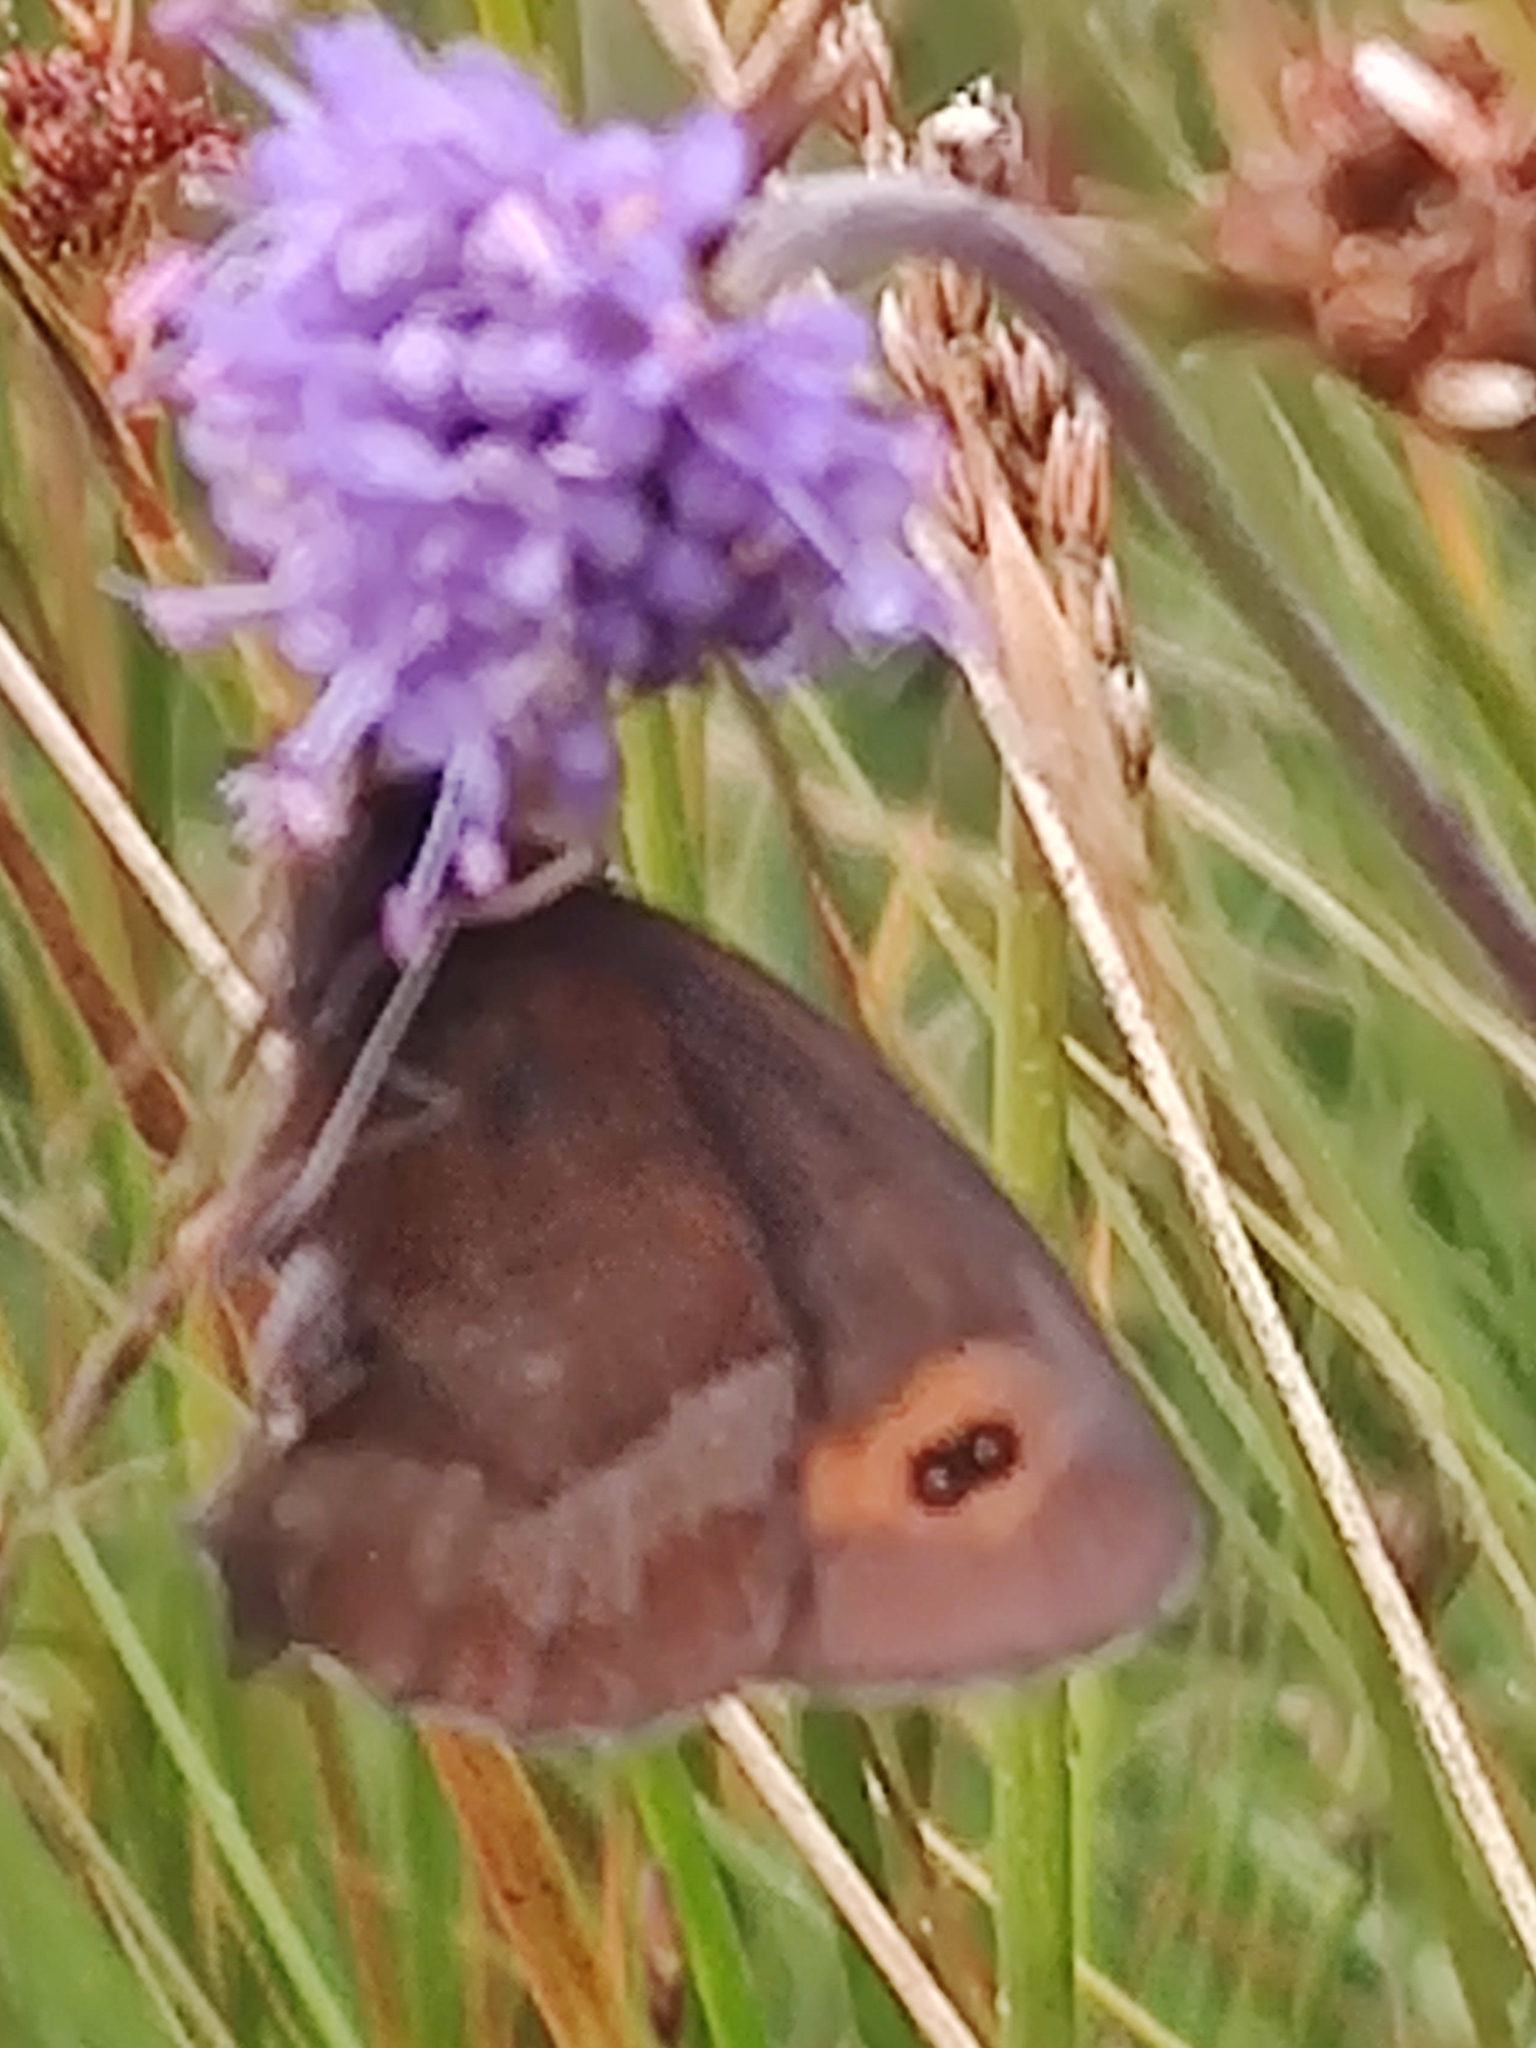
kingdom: Animalia
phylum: Arthropoda
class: Insecta
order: Lepidoptera
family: Nymphalidae
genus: Erebia
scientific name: Erebia aethiops
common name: Scotch argus
